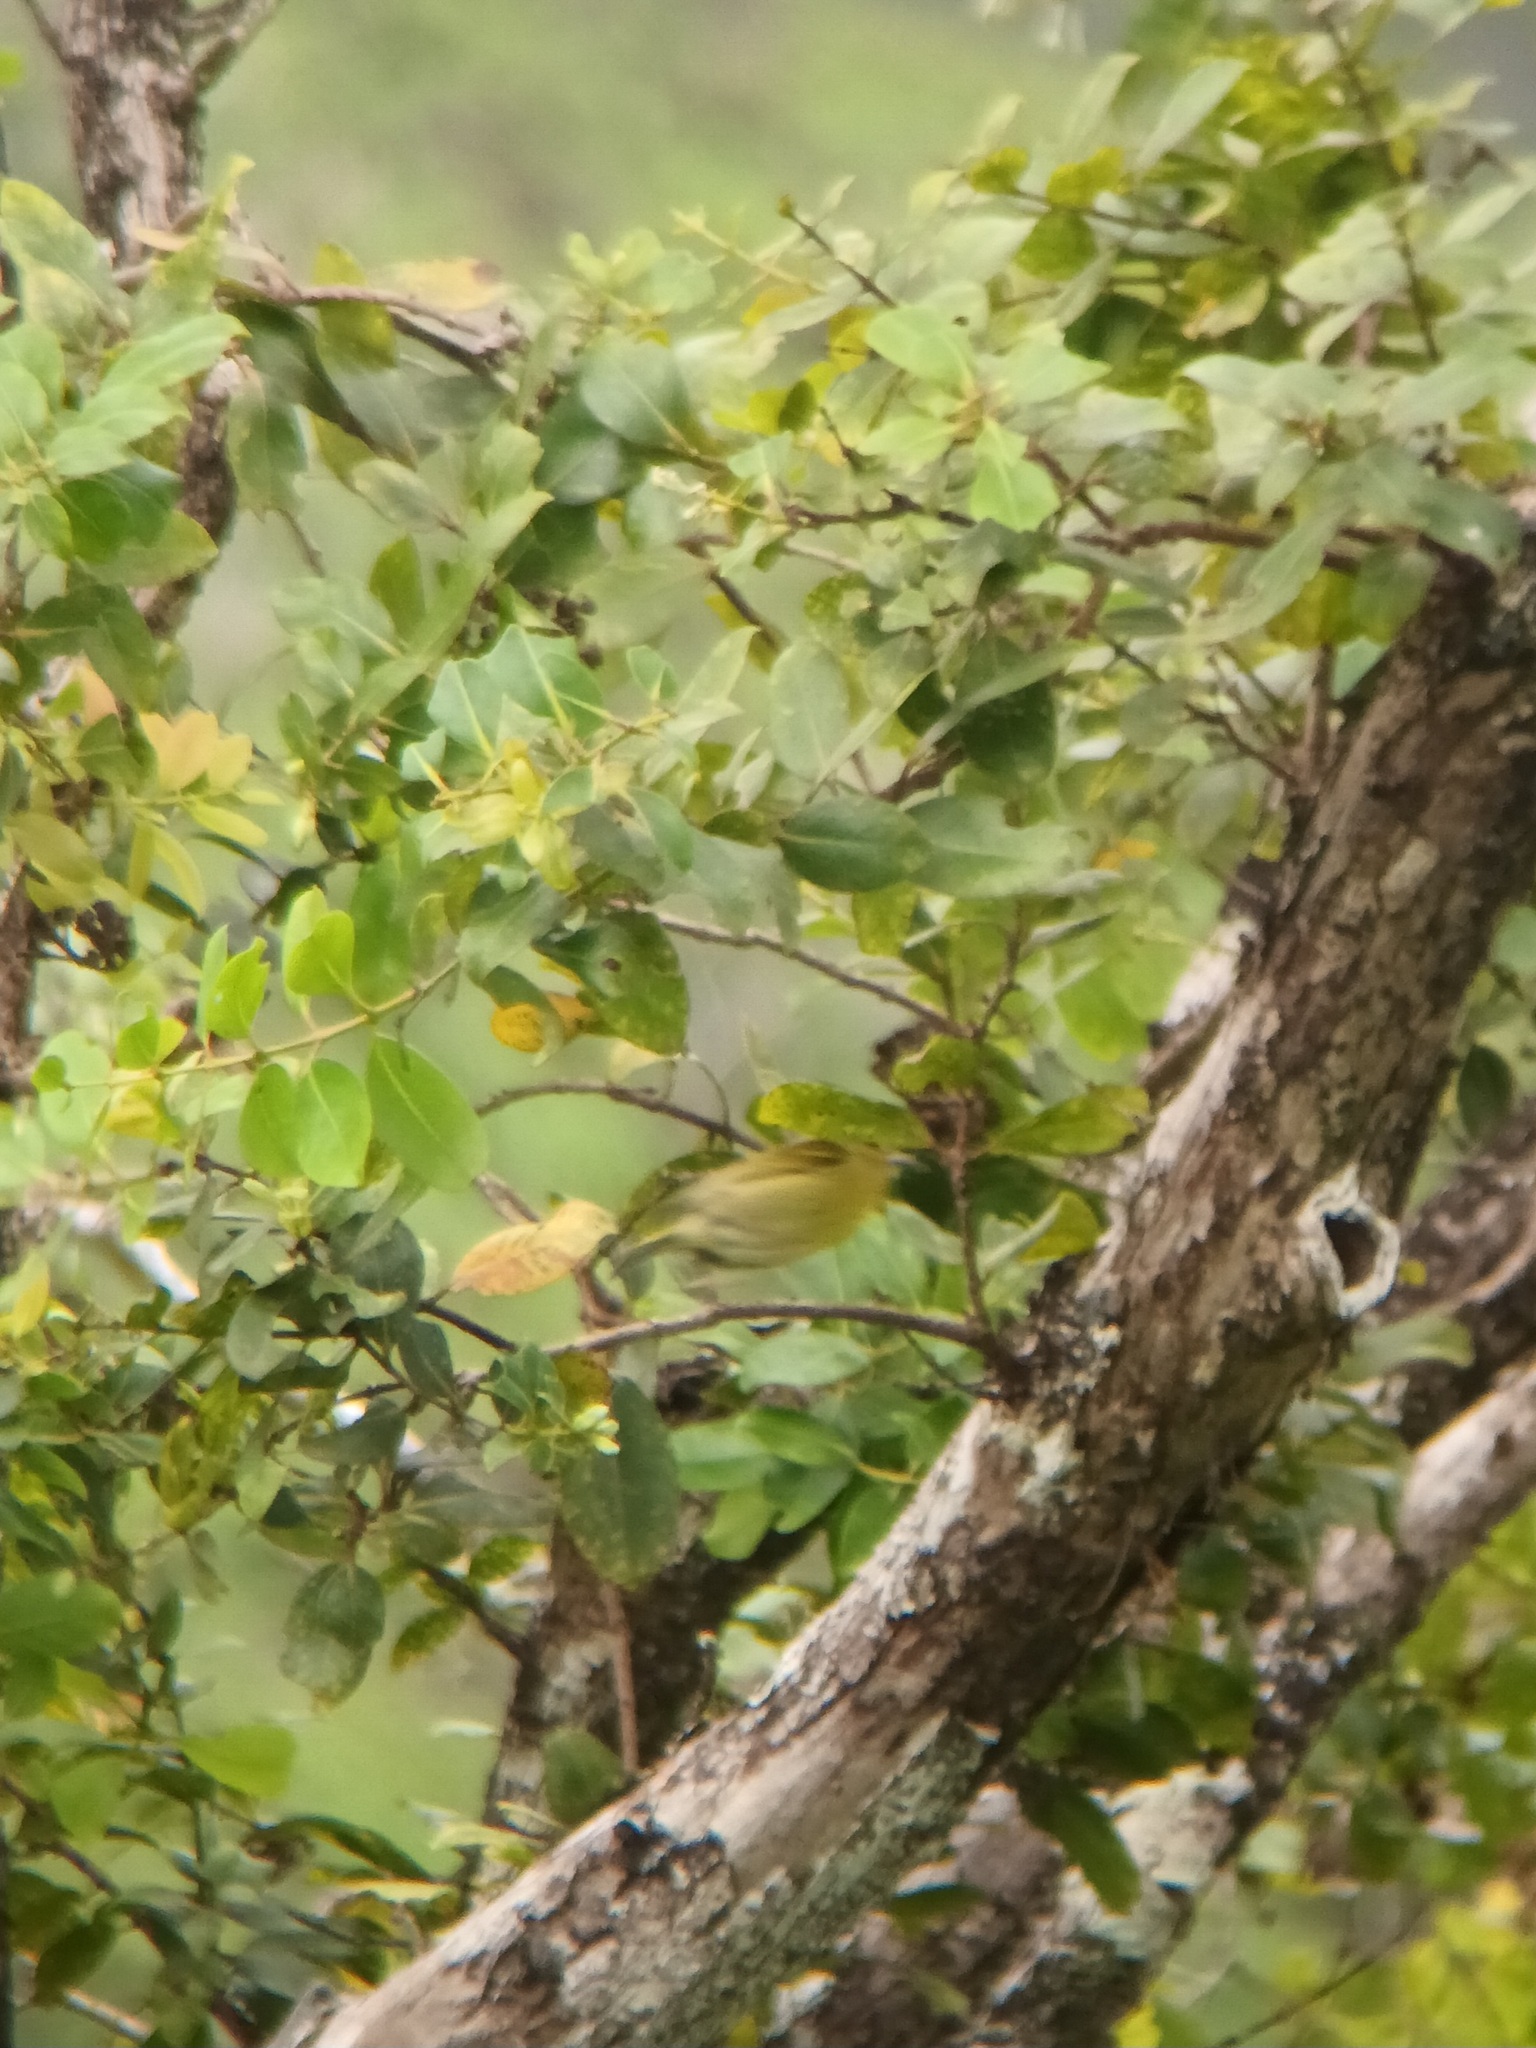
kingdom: Animalia
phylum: Chordata
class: Aves
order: Passeriformes
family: Fringillidae
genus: Chlorodrepanis
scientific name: Chlorodrepanis virens
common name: Hawaii amakihi
